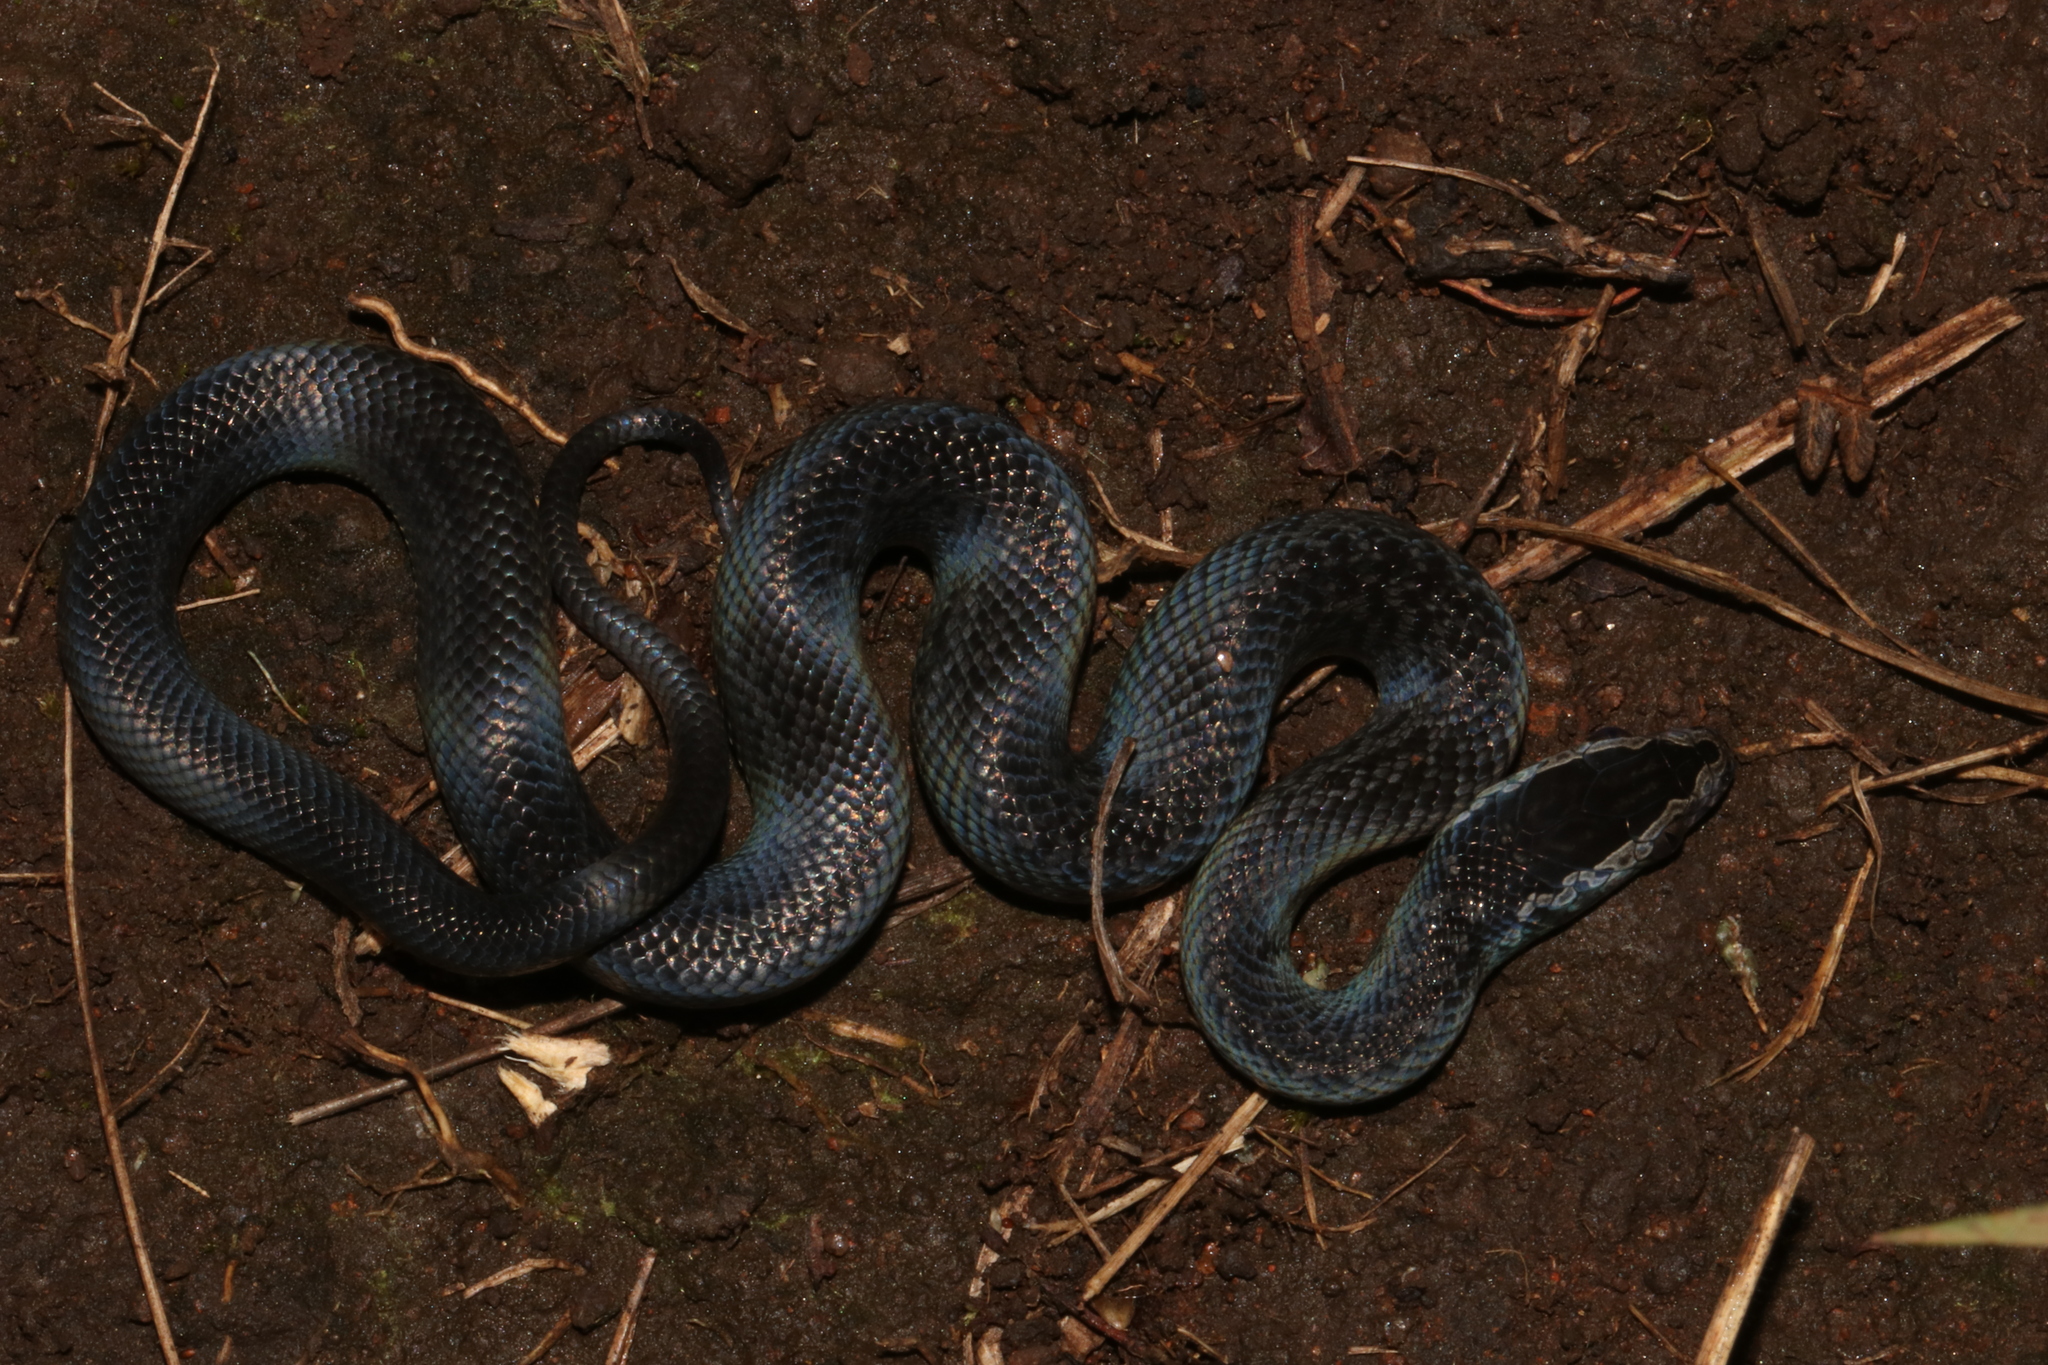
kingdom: Animalia
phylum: Chordata
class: Squamata
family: Lamprophiidae
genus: Boaedon
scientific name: Boaedon fuliginosus
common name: African house snake
